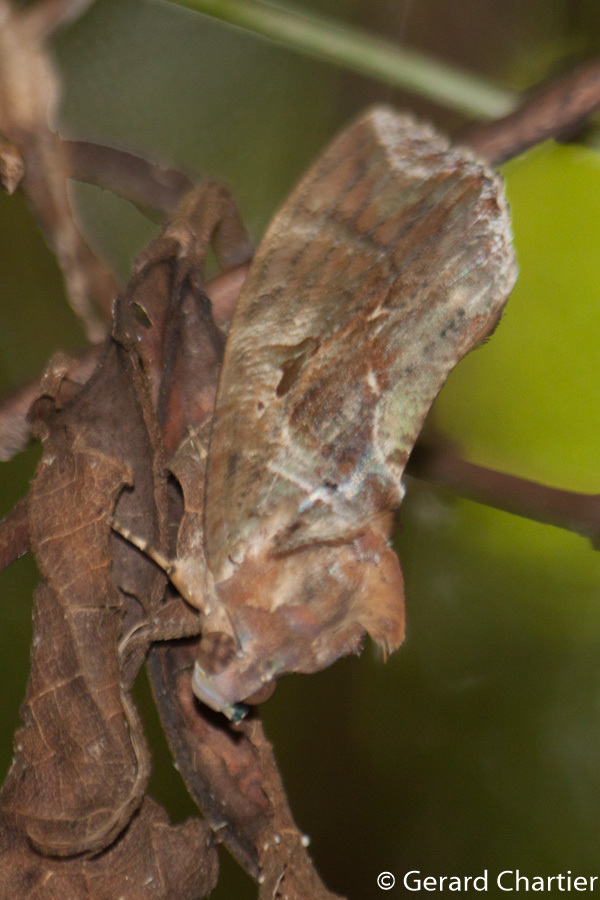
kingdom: Animalia
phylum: Arthropoda
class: Insecta
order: Lepidoptera
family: Erebidae
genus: Eudocima
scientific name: Eudocima phalonia
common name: Wasp
